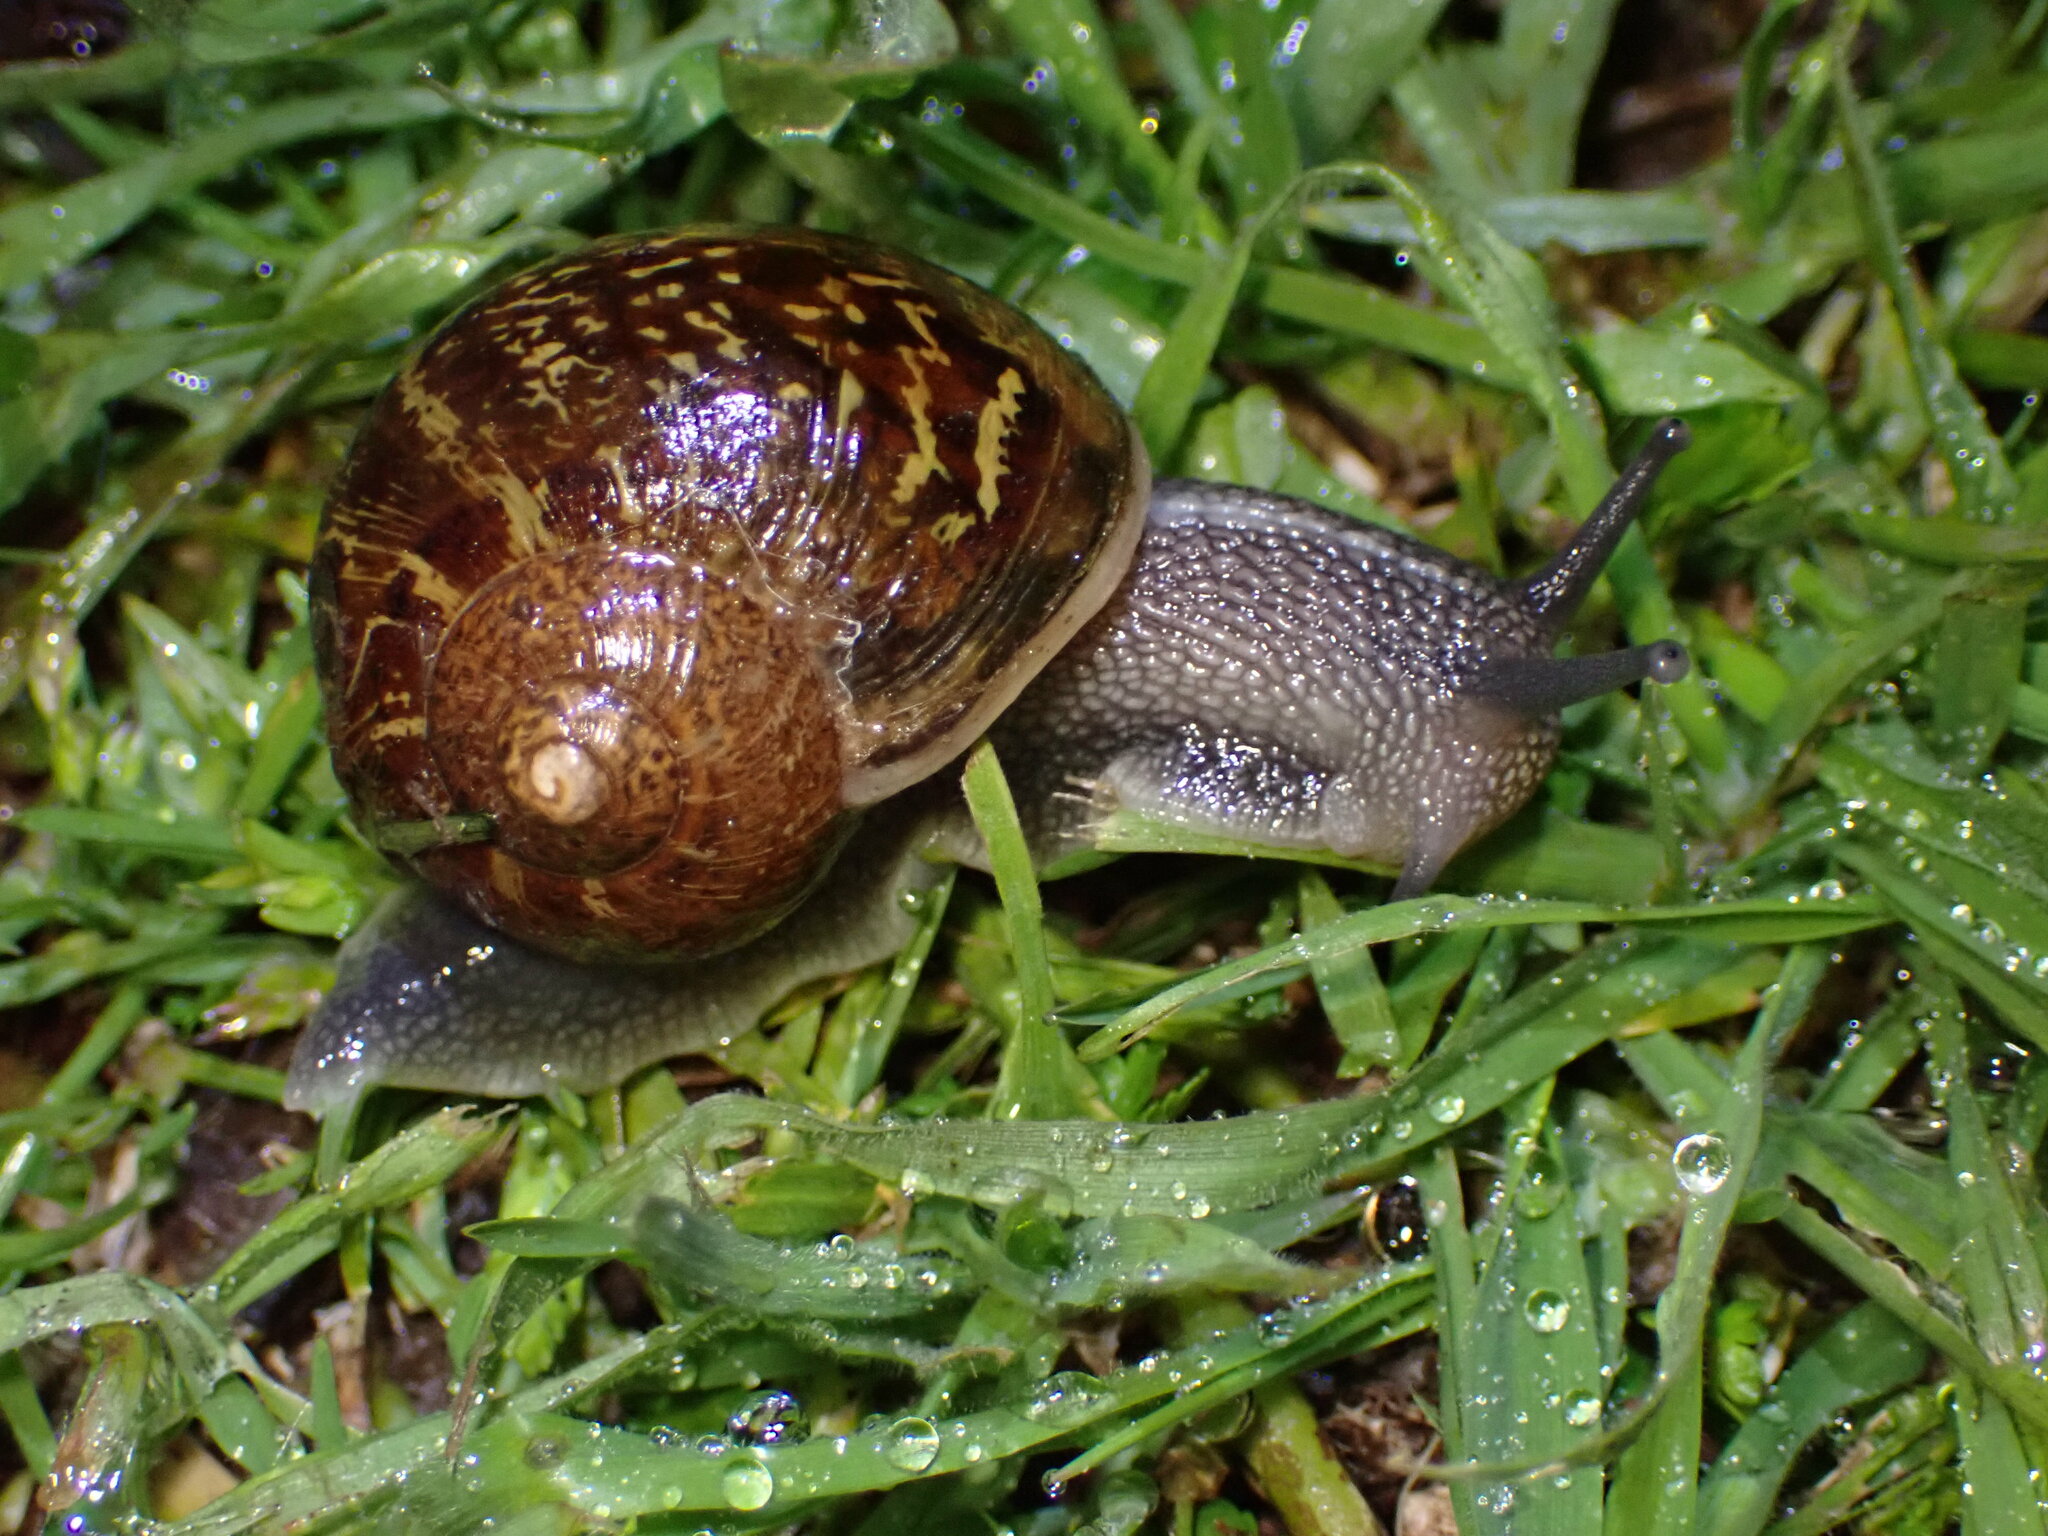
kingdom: Animalia
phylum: Mollusca
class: Gastropoda
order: Stylommatophora
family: Helicidae
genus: Cornu
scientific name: Cornu aspersum
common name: Brown garden snail
